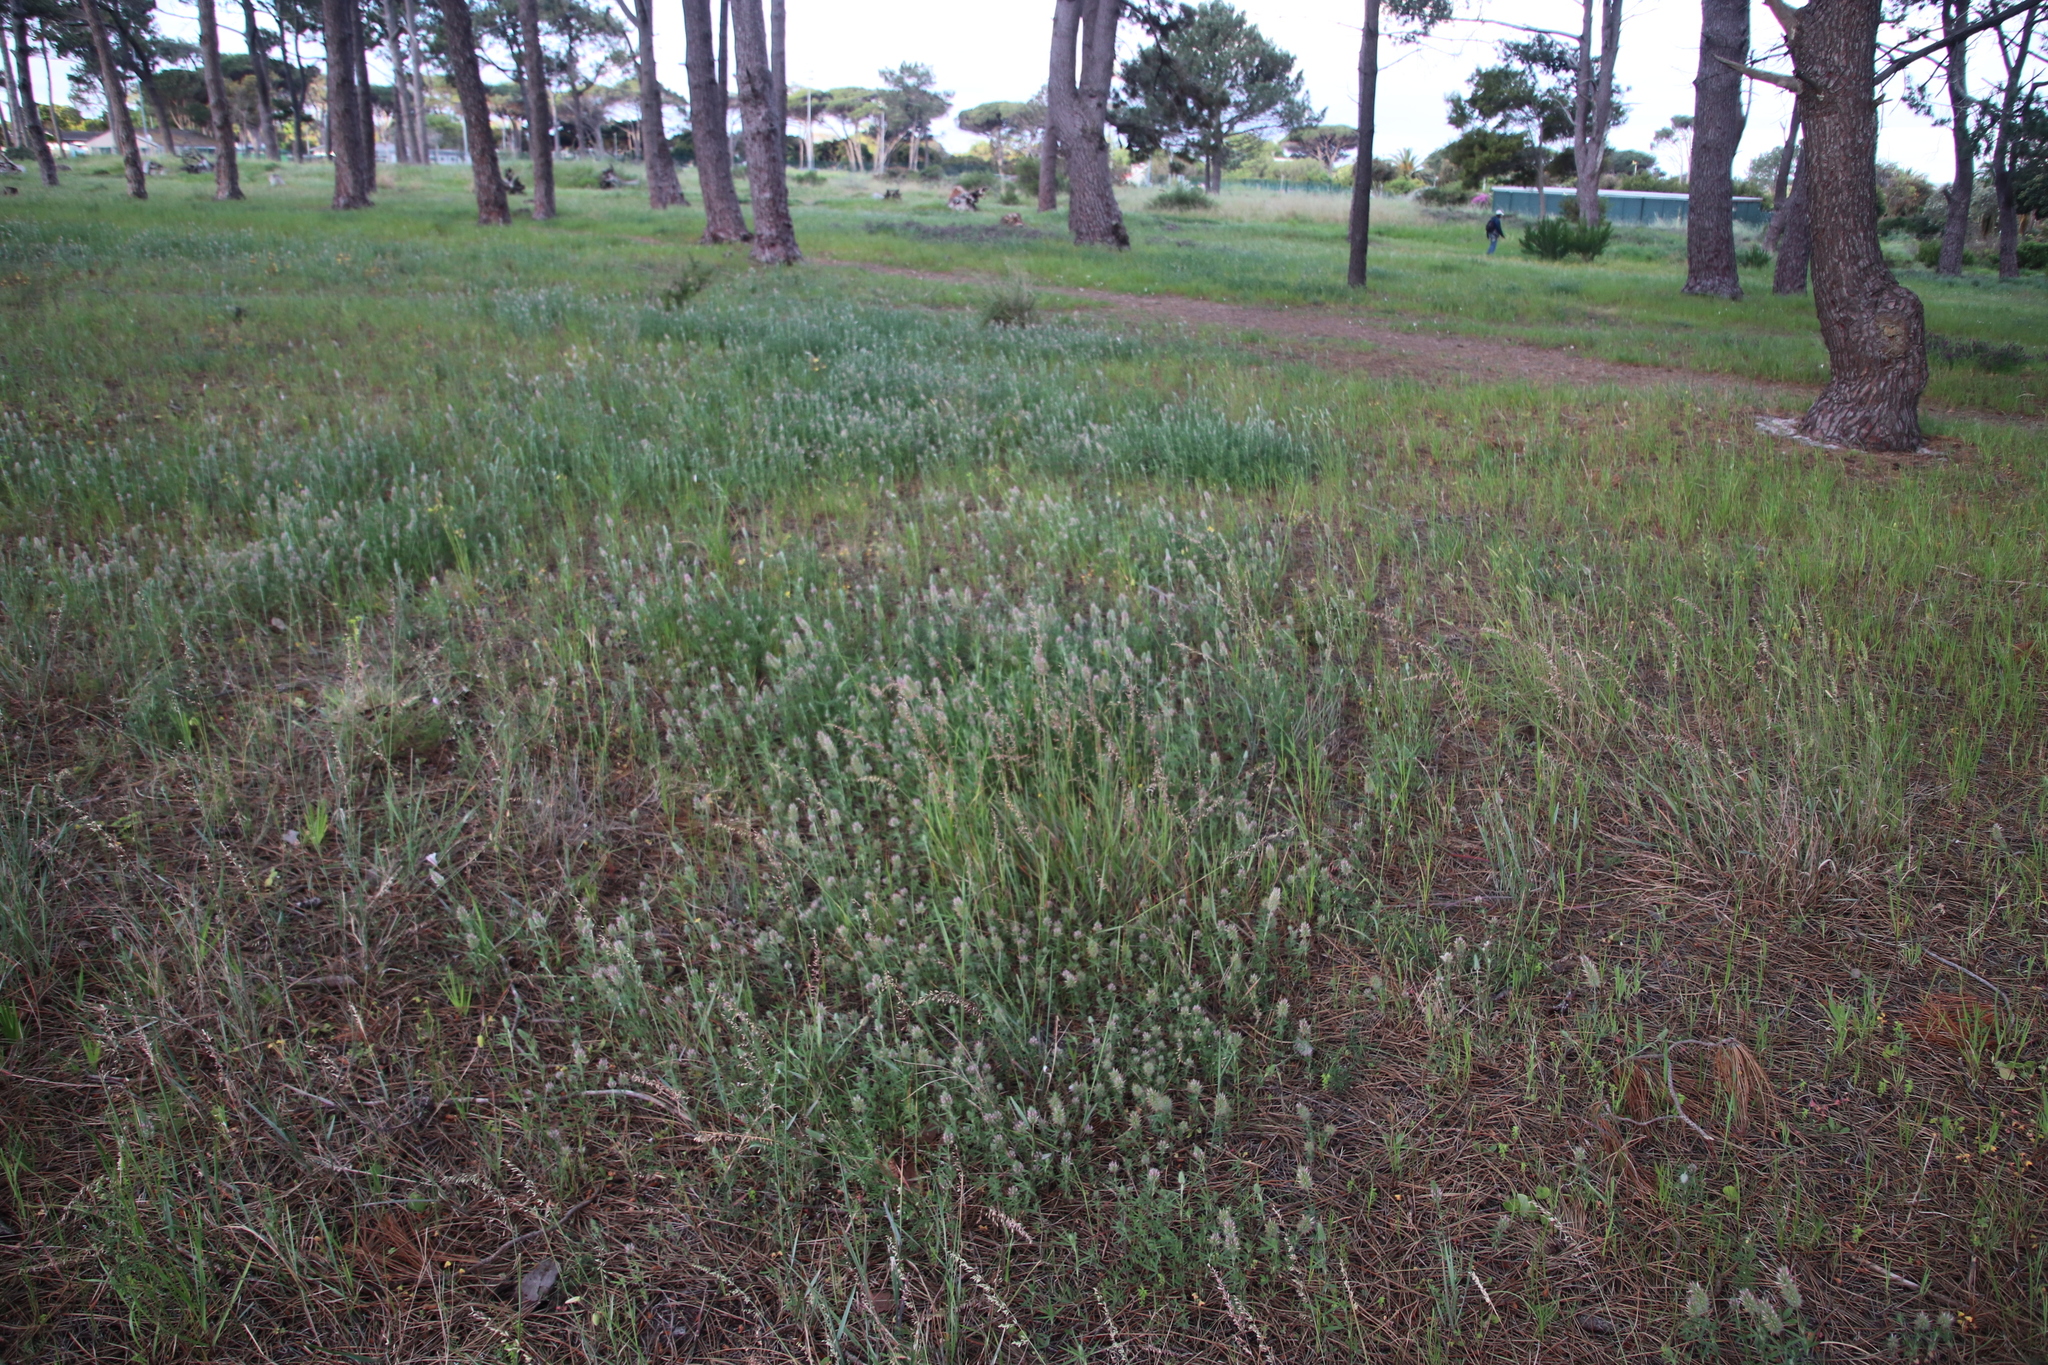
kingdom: Plantae
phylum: Tracheophyta
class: Magnoliopsida
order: Fabales
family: Fabaceae
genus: Trifolium
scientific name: Trifolium arvense
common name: Hare's-foot clover
